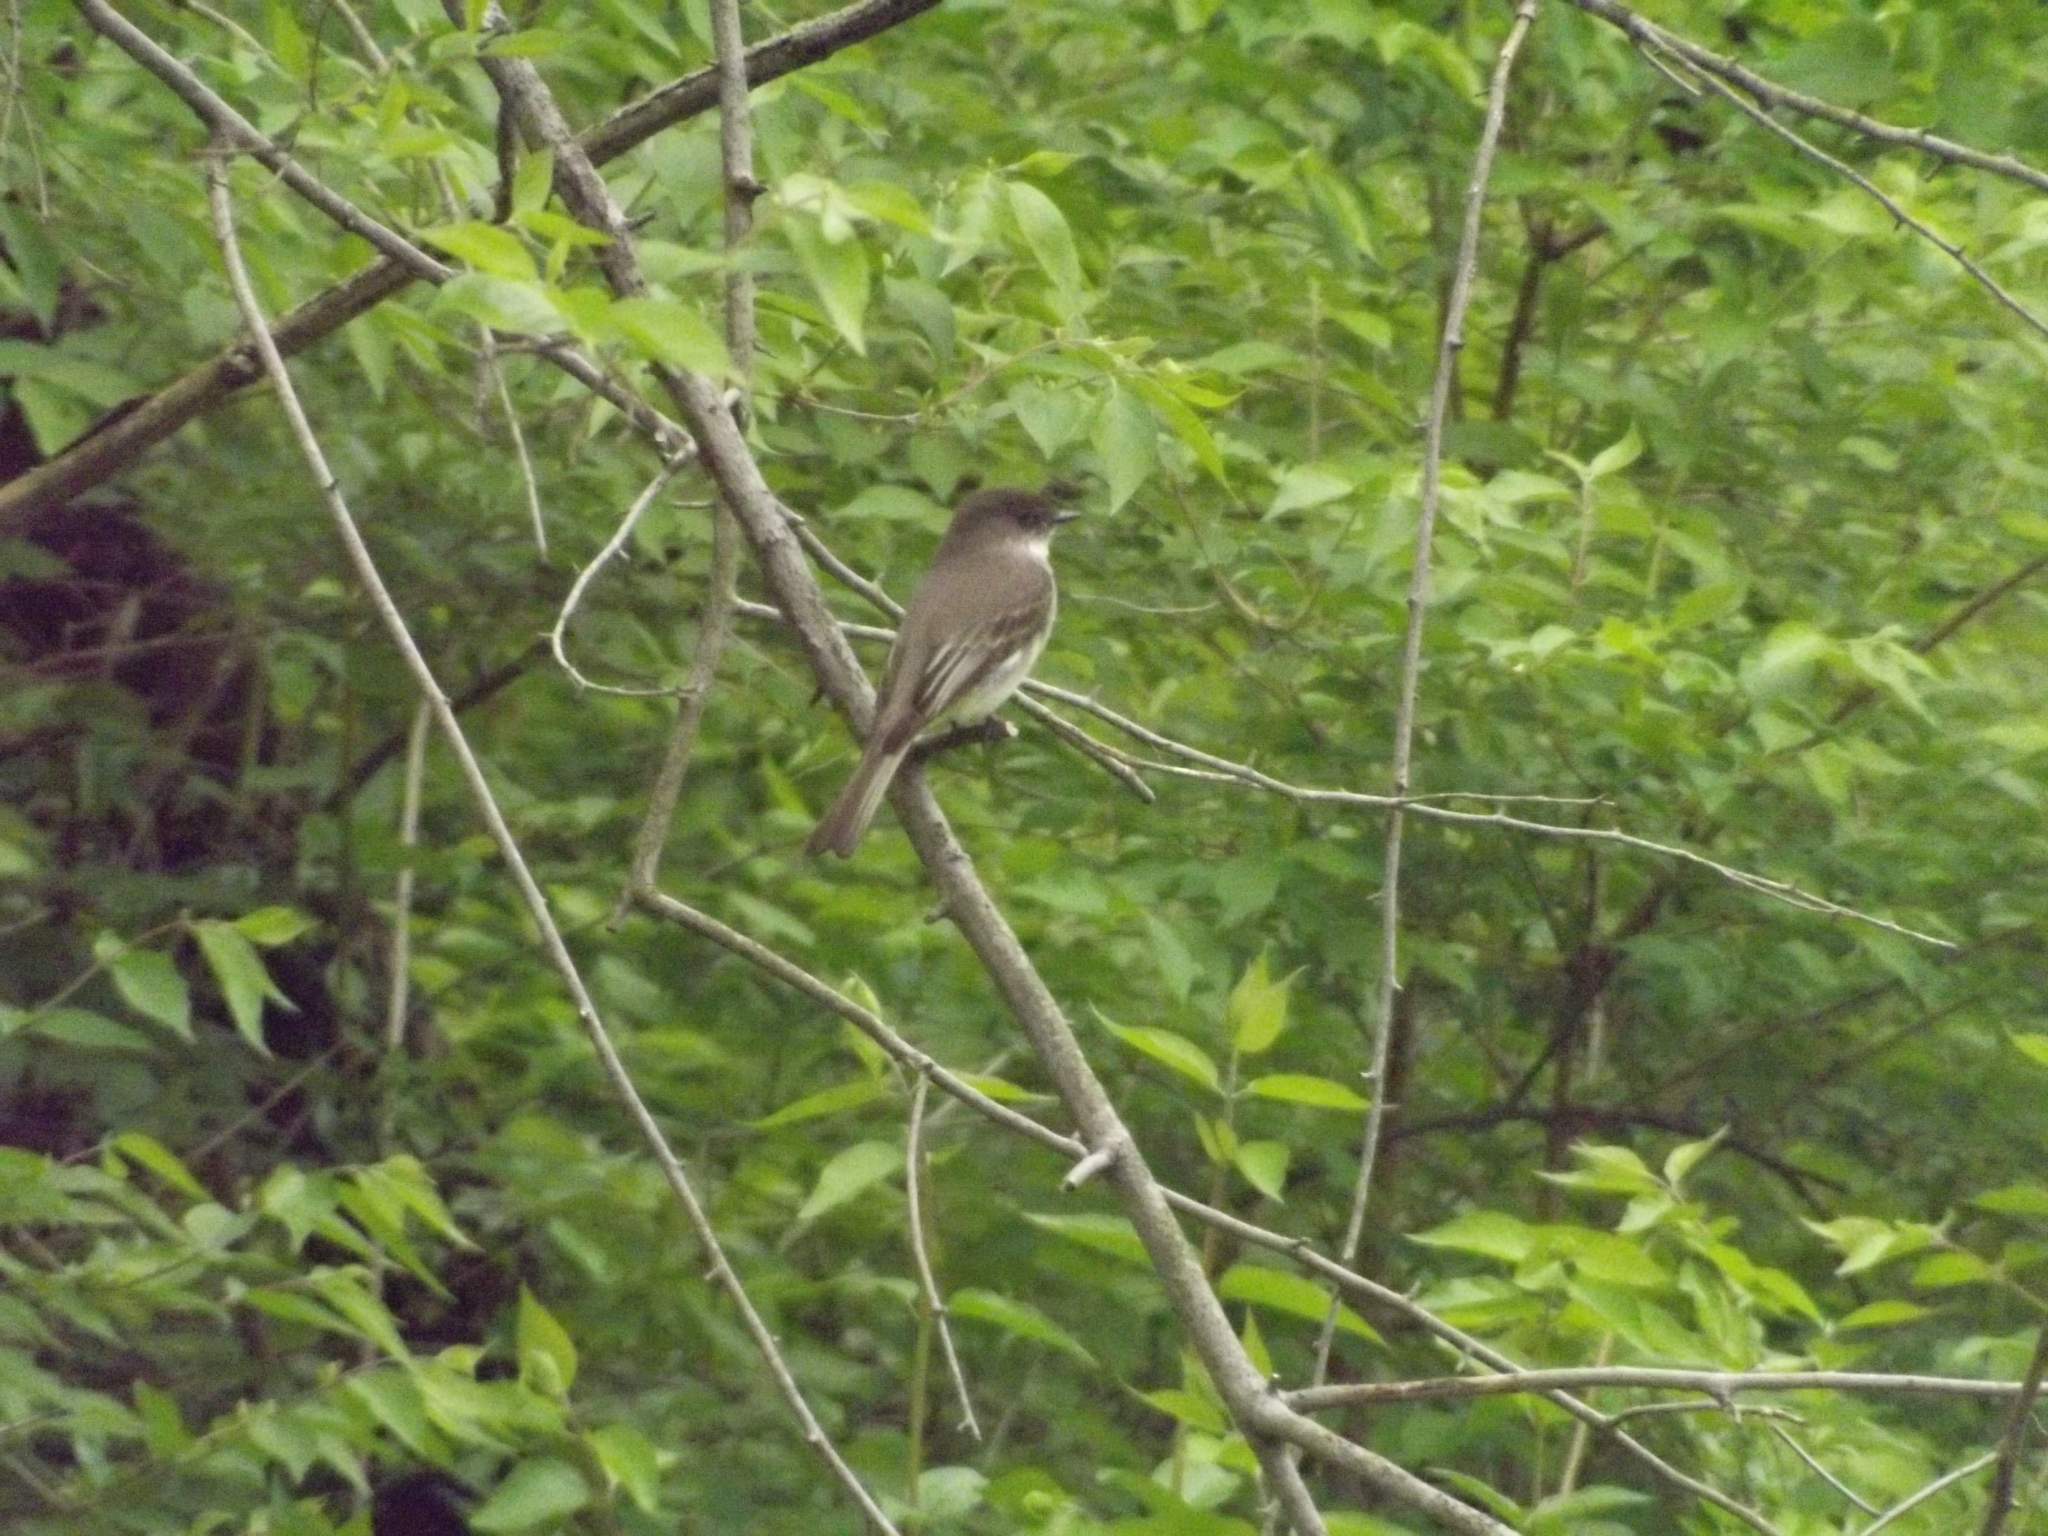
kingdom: Animalia
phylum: Chordata
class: Aves
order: Passeriformes
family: Tyrannidae
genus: Sayornis
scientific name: Sayornis phoebe
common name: Eastern phoebe
